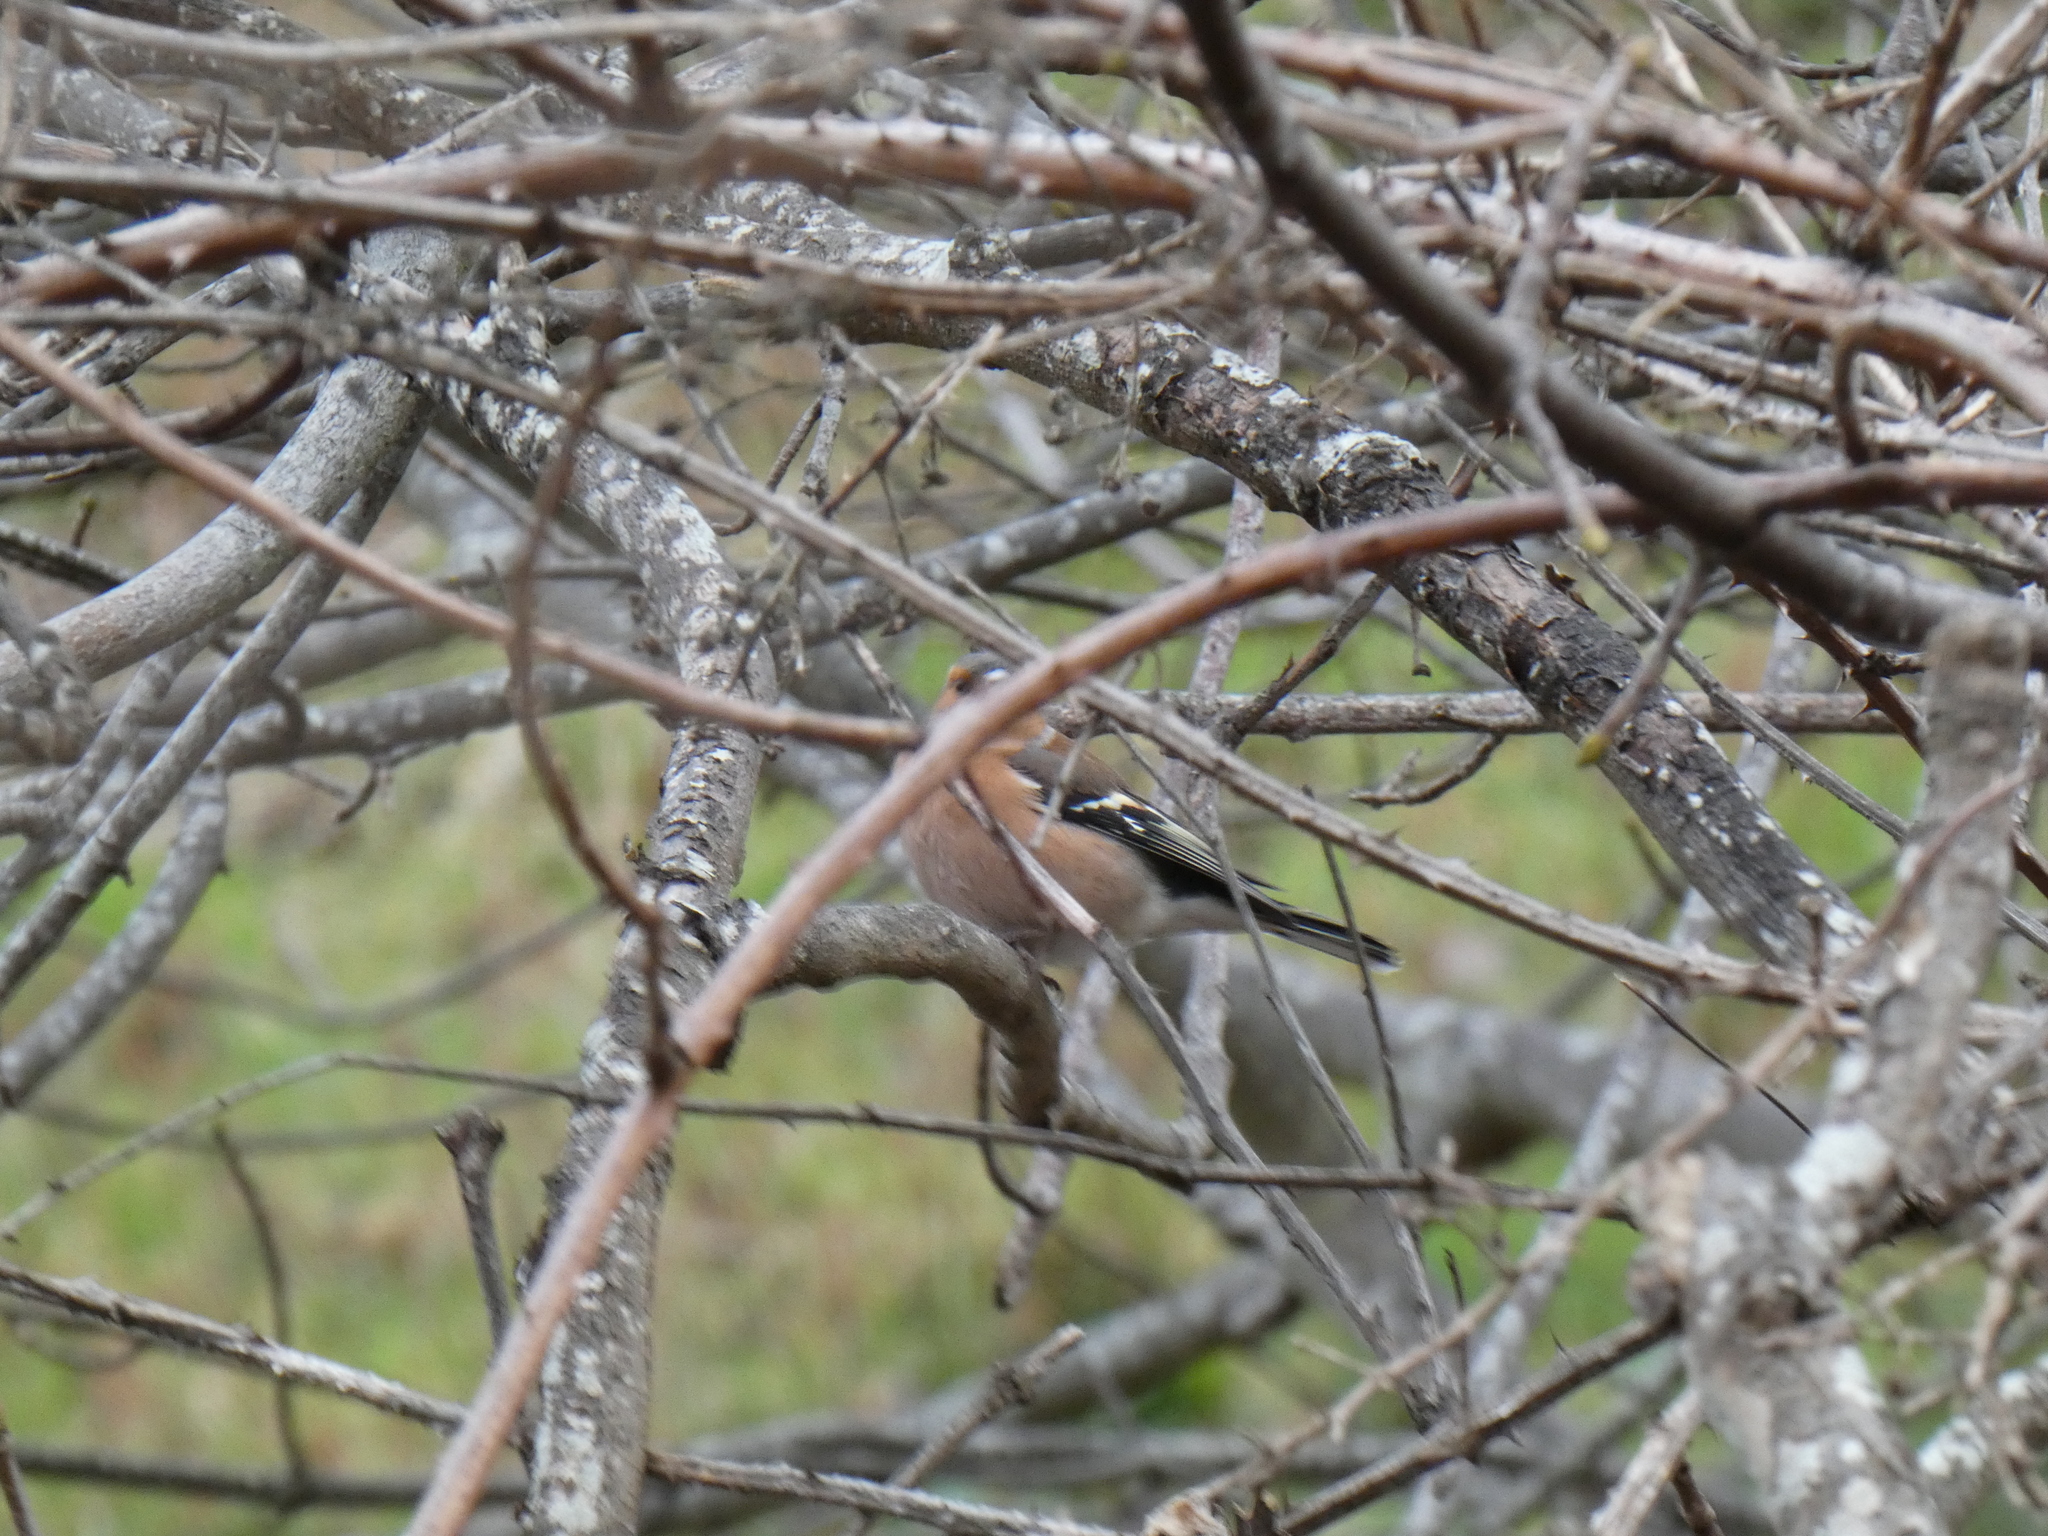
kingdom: Animalia
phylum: Chordata
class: Aves
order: Passeriformes
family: Fringillidae
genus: Fringilla
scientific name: Fringilla coelebs
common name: Common chaffinch
